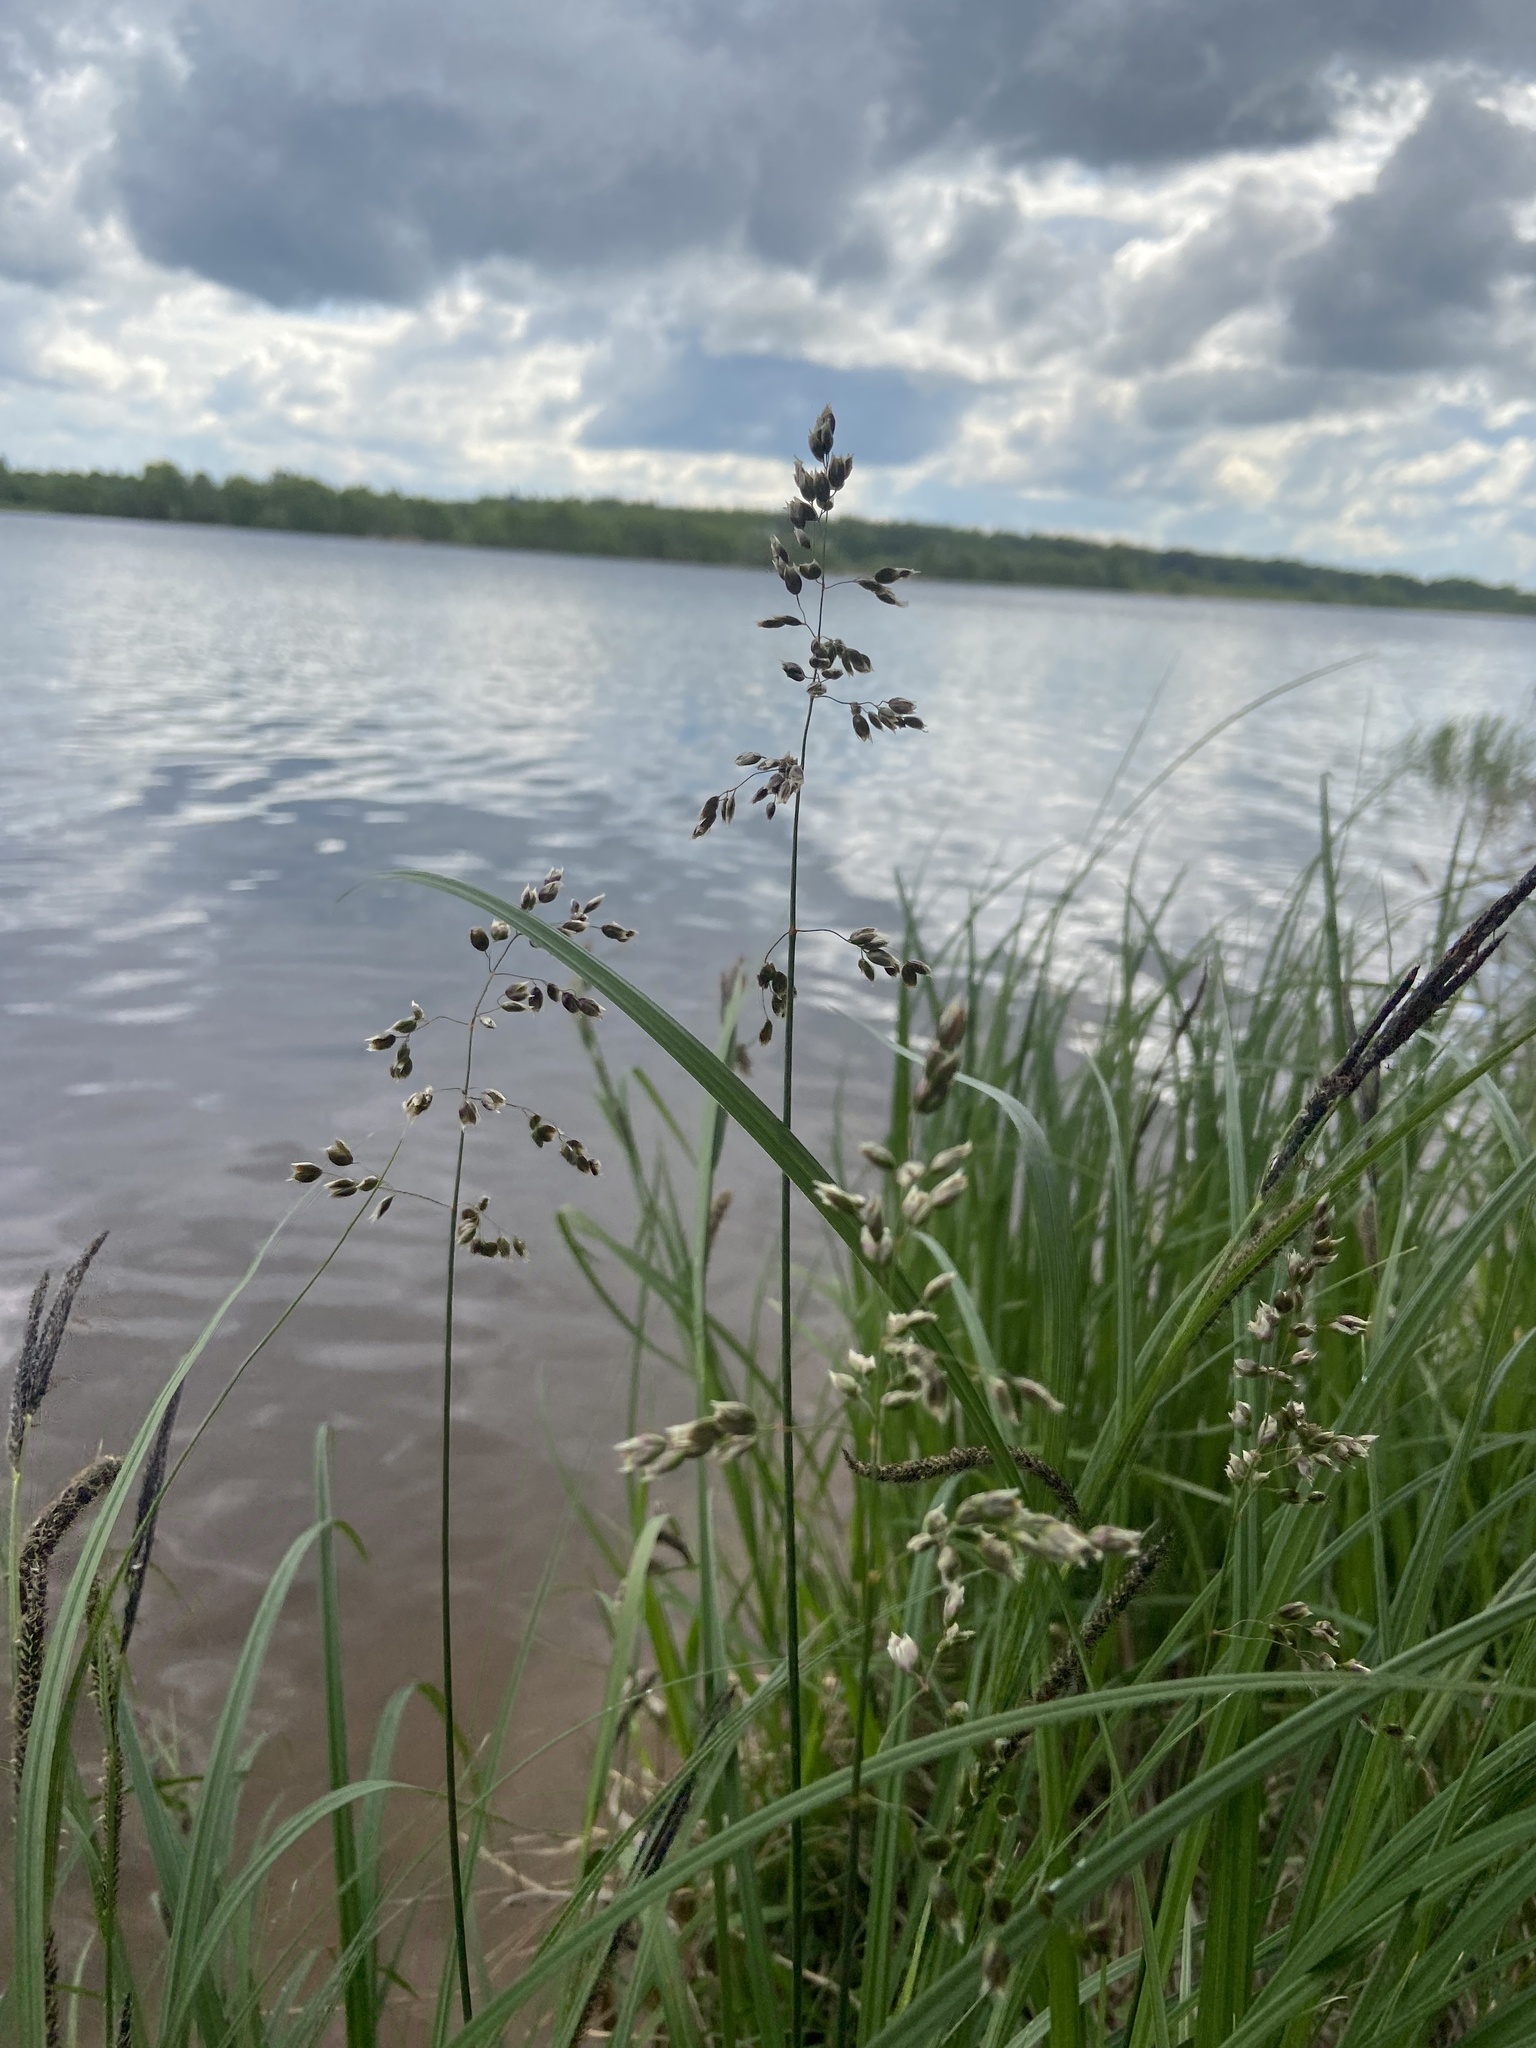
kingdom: Plantae
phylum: Tracheophyta
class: Liliopsida
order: Poales
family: Poaceae
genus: Anthoxanthum
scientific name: Anthoxanthum nitens
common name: Holy grass
